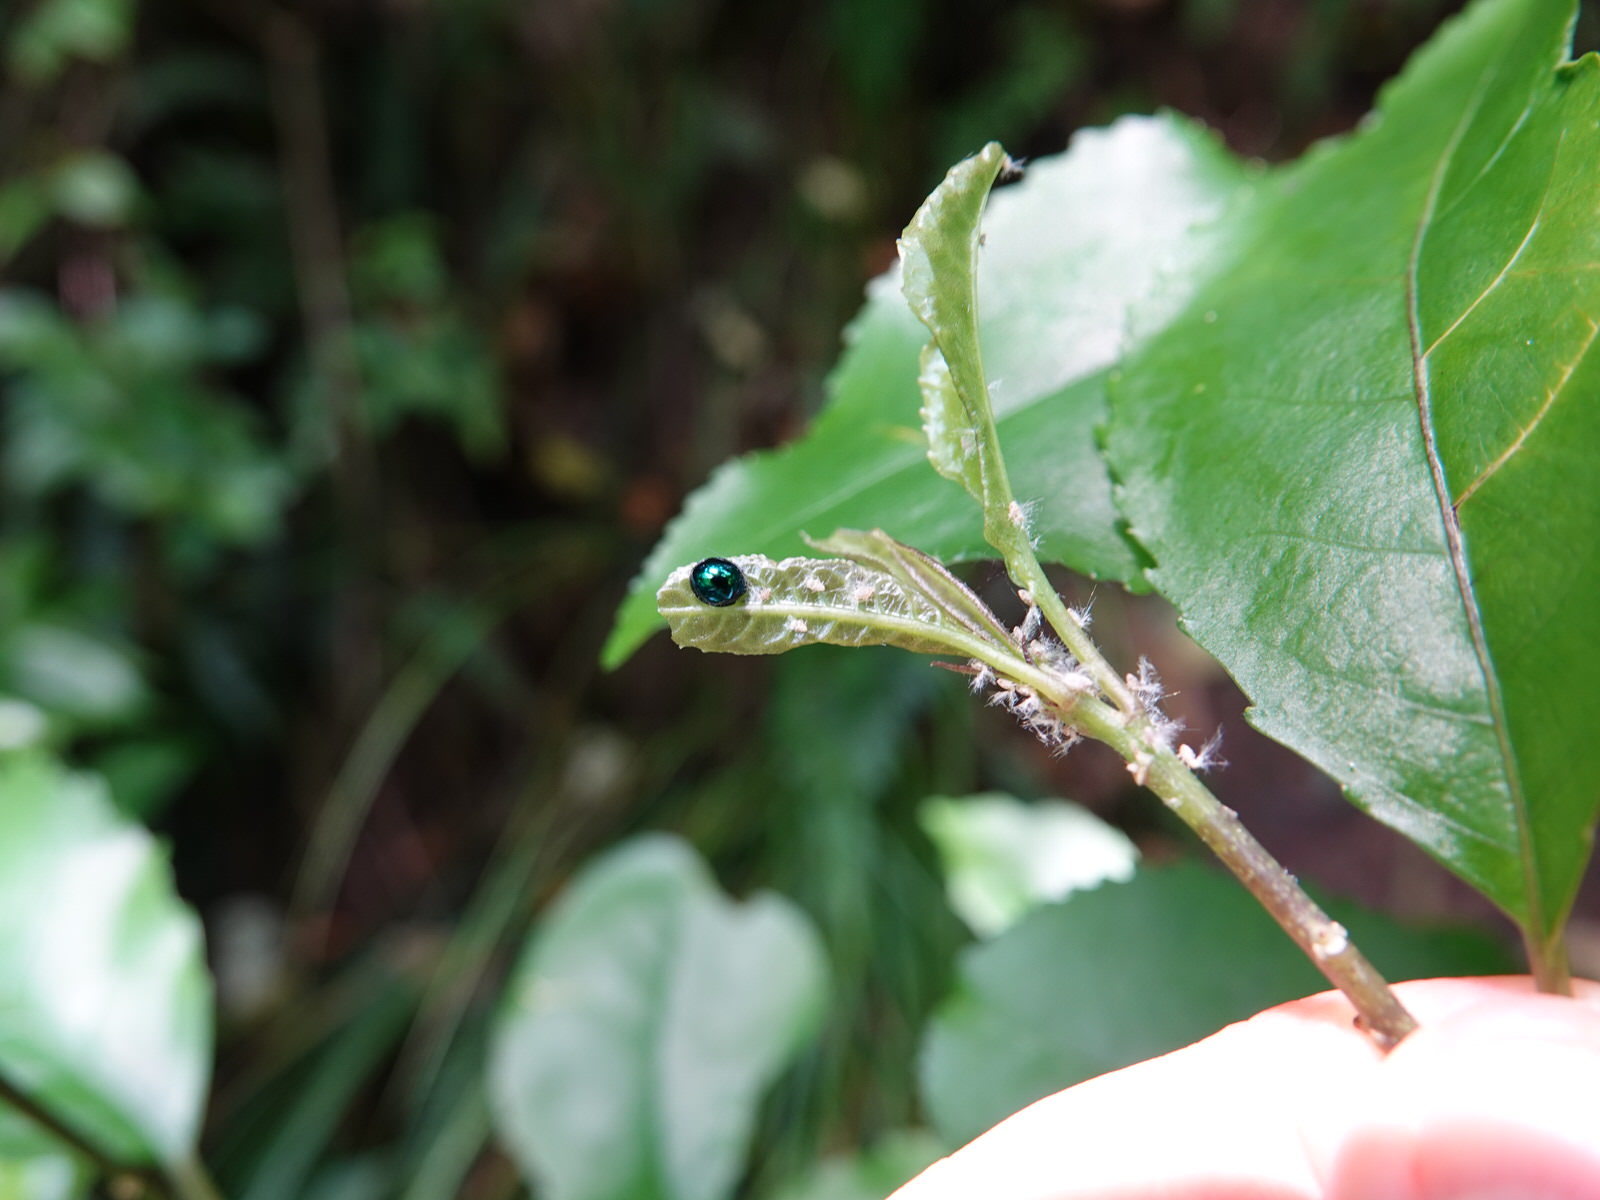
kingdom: Animalia
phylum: Arthropoda
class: Insecta
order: Coleoptera
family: Coccinellidae
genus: Halmus
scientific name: Halmus chalybeus
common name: Steel blue ladybird beetle
